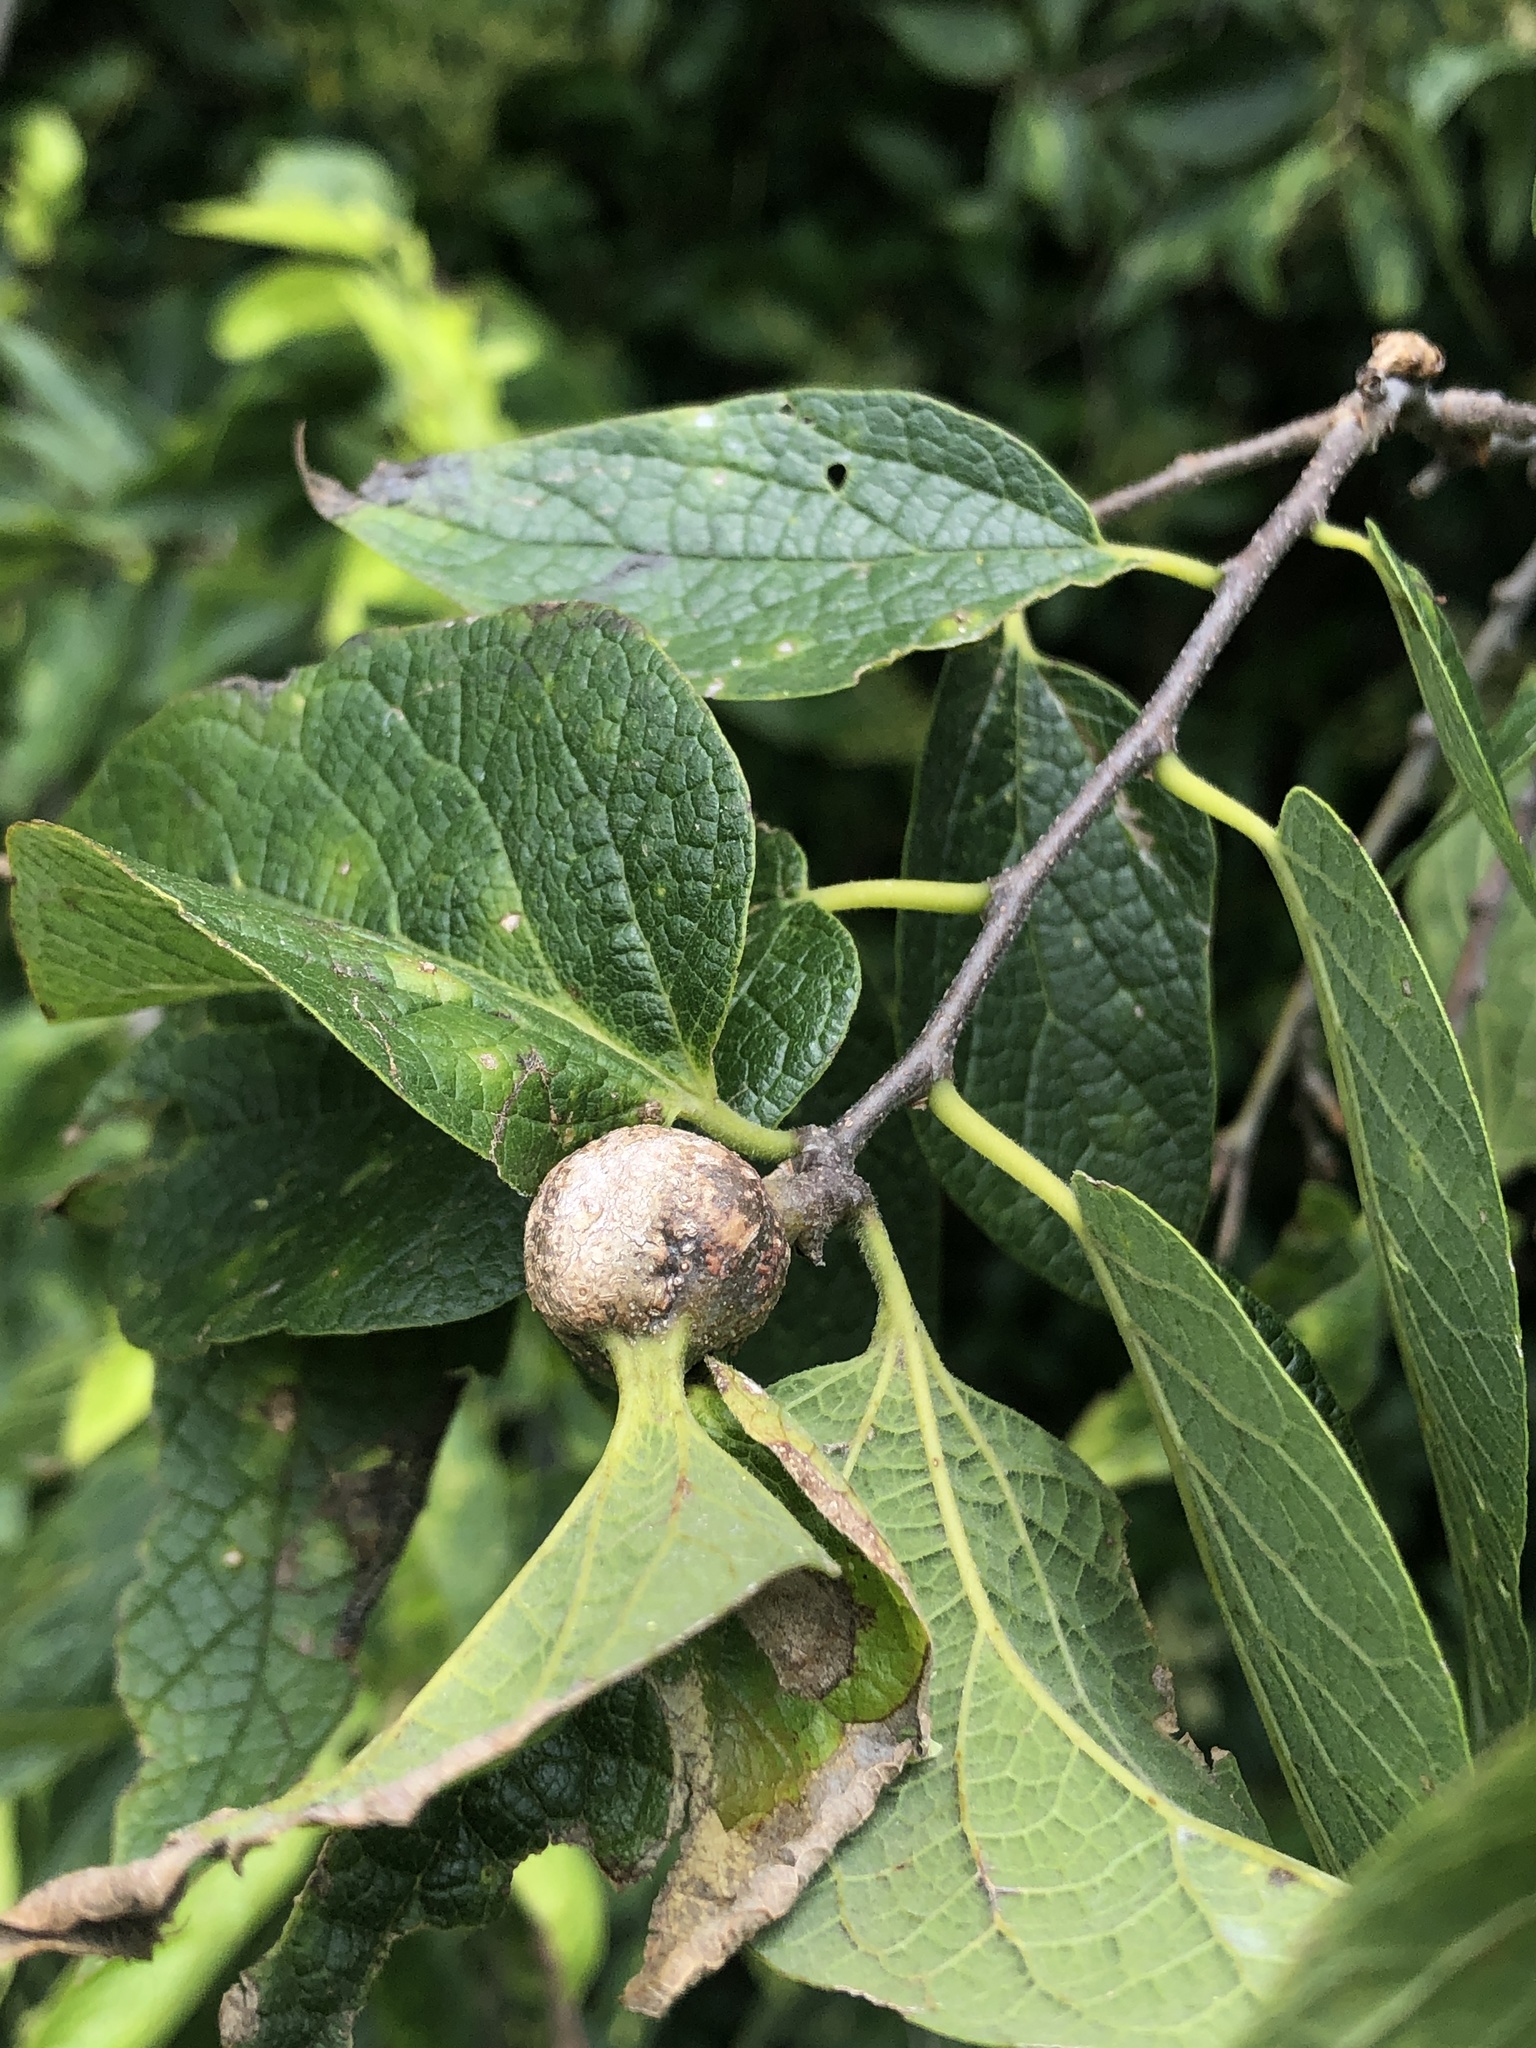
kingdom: Animalia
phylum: Arthropoda
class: Insecta
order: Hemiptera
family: Aphalaridae
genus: Pachypsylla
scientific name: Pachypsylla venusta
